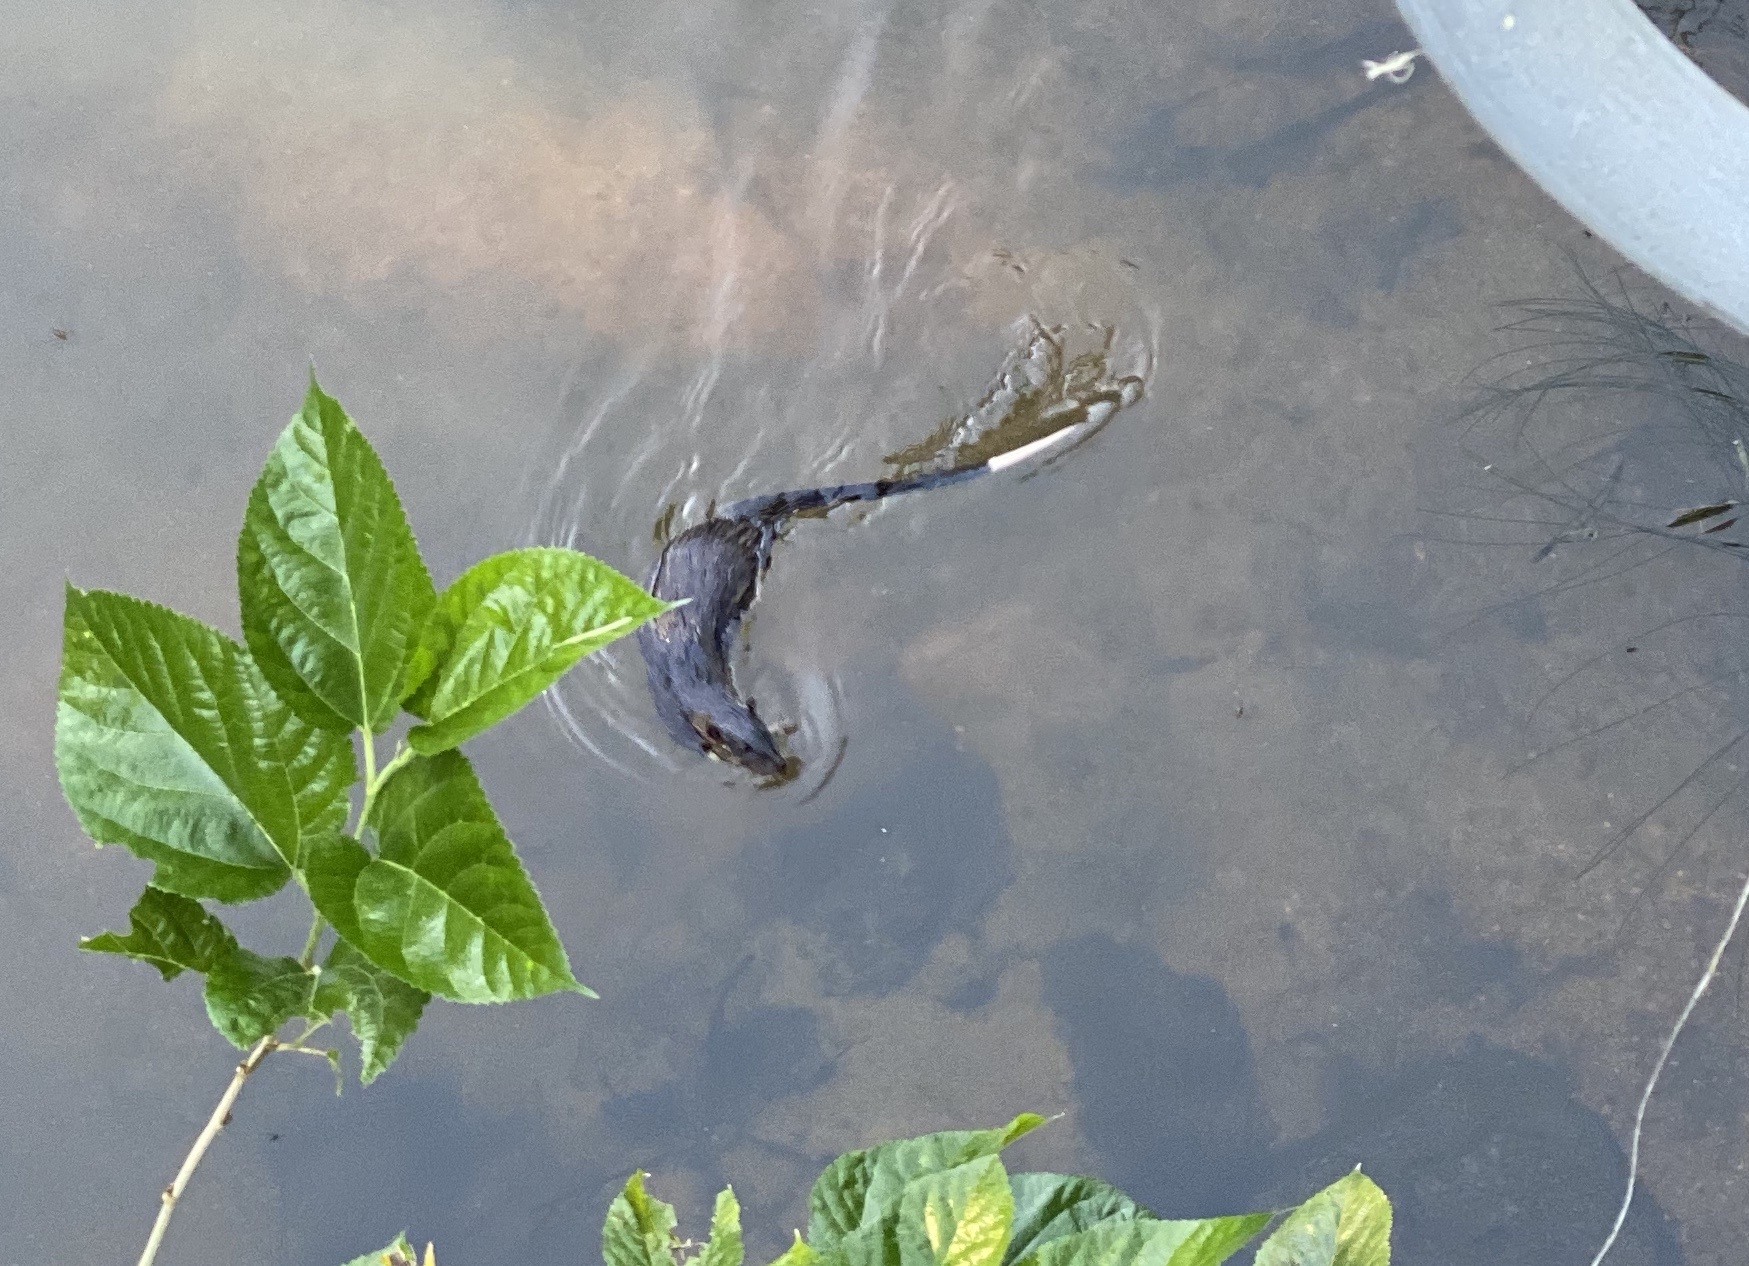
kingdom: Animalia
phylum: Chordata
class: Mammalia
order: Rodentia
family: Muridae
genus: Hydromys
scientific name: Hydromys chrysogaster
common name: Common water rat
